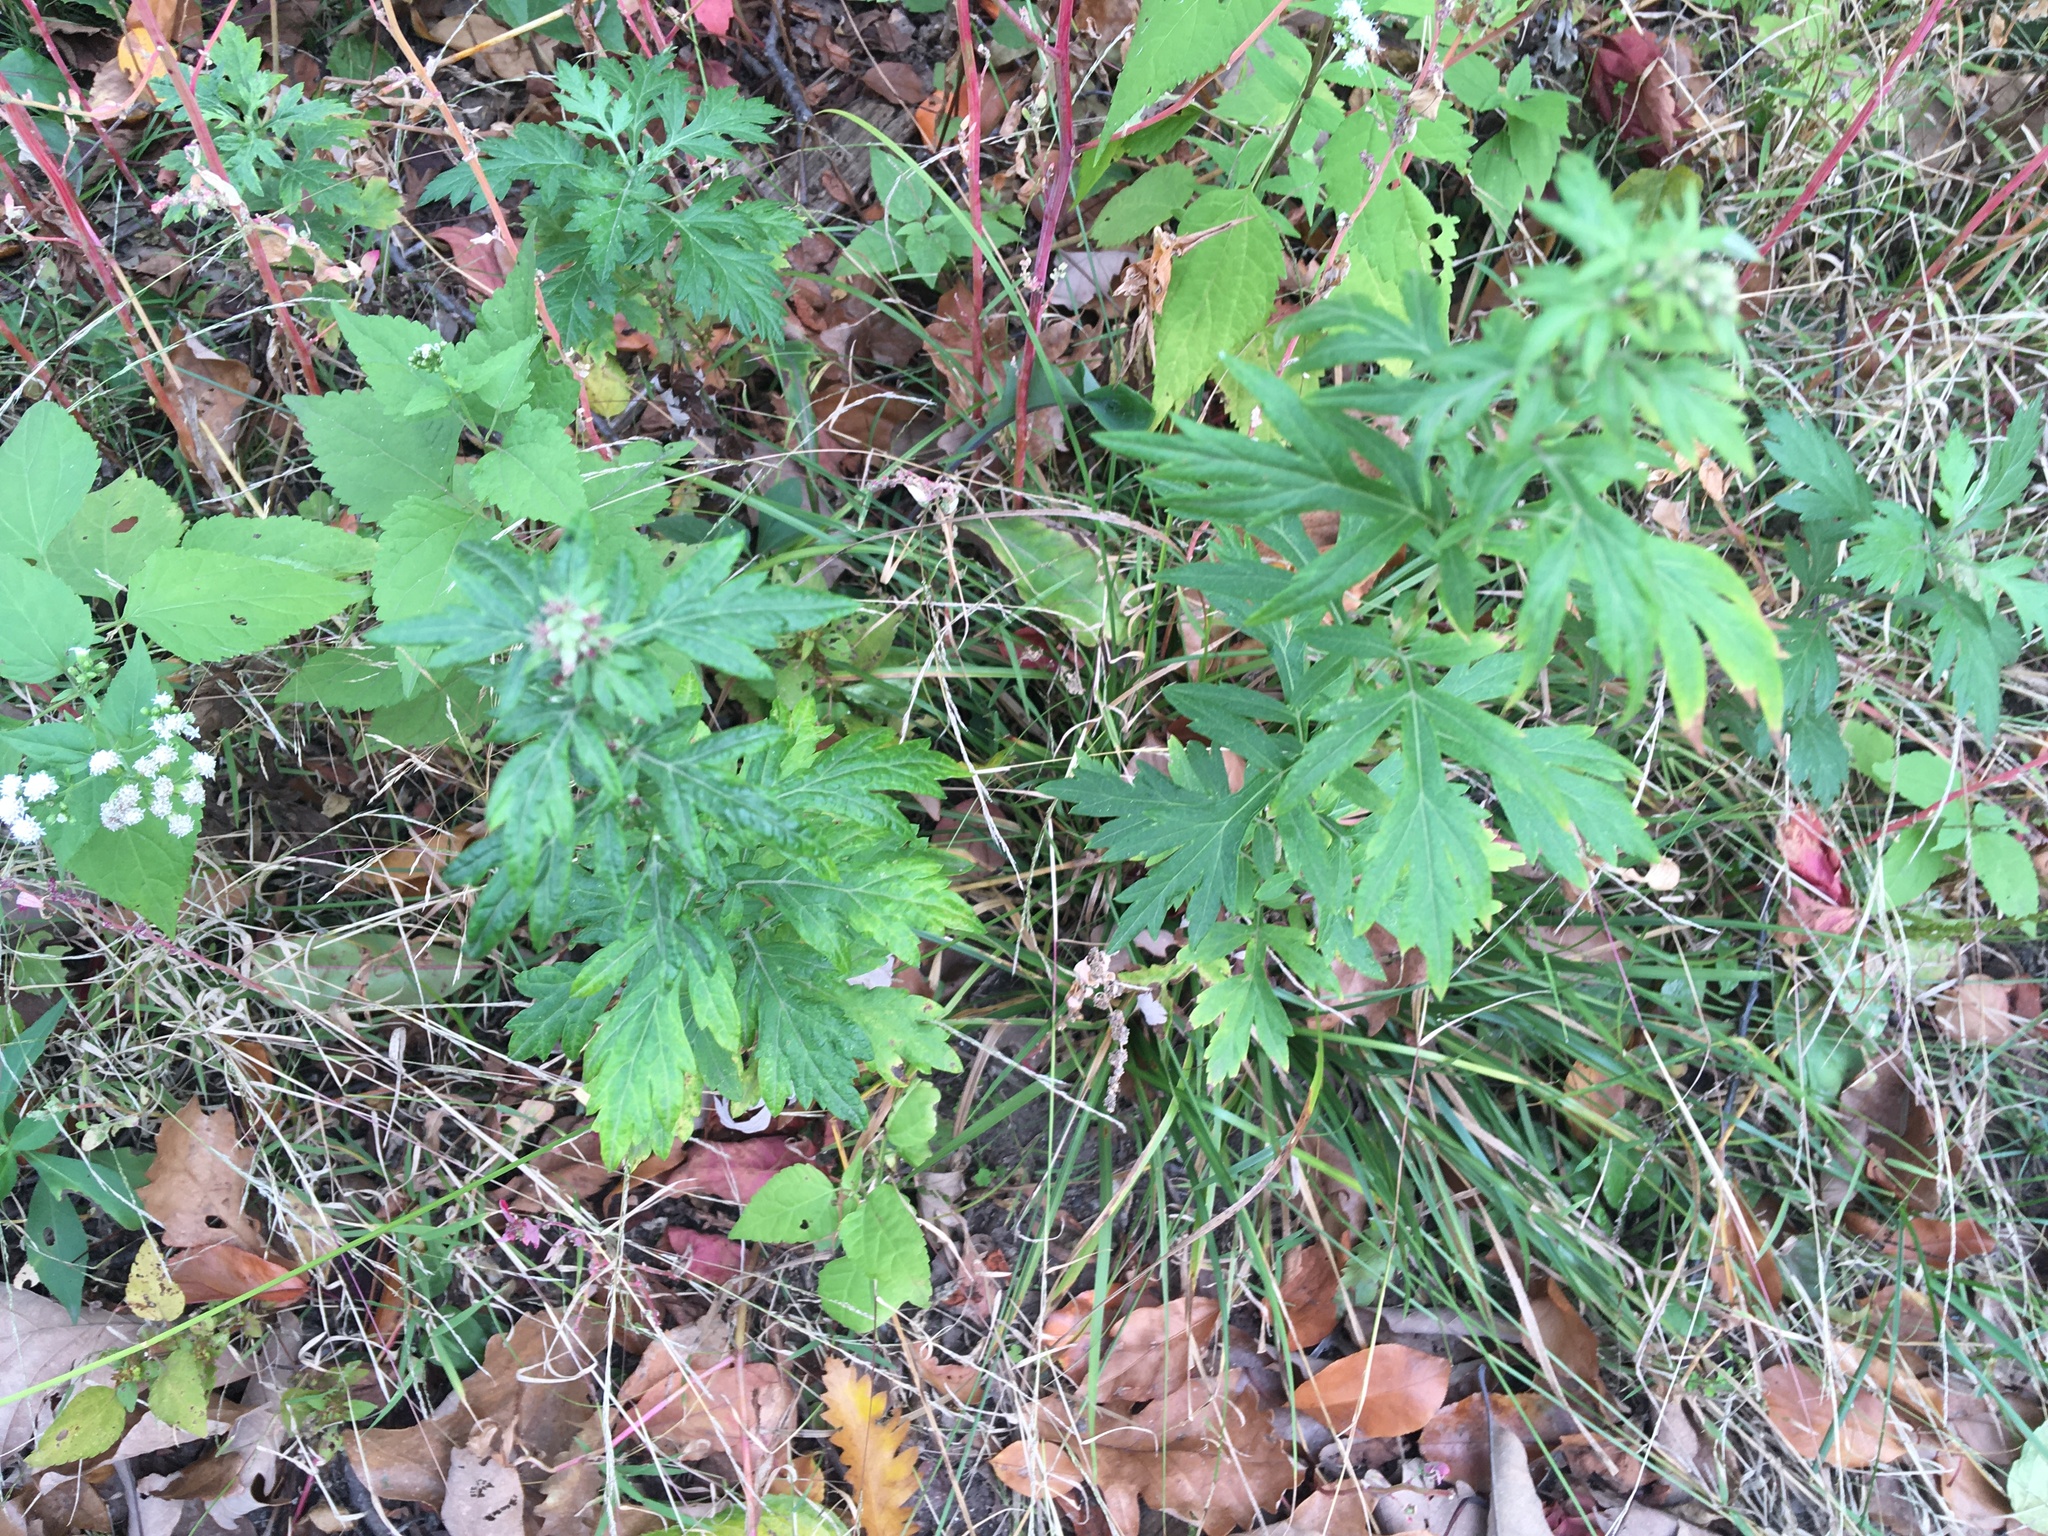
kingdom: Plantae
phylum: Tracheophyta
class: Magnoliopsida
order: Asterales
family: Asteraceae
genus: Artemisia
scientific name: Artemisia vulgaris
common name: Mugwort
